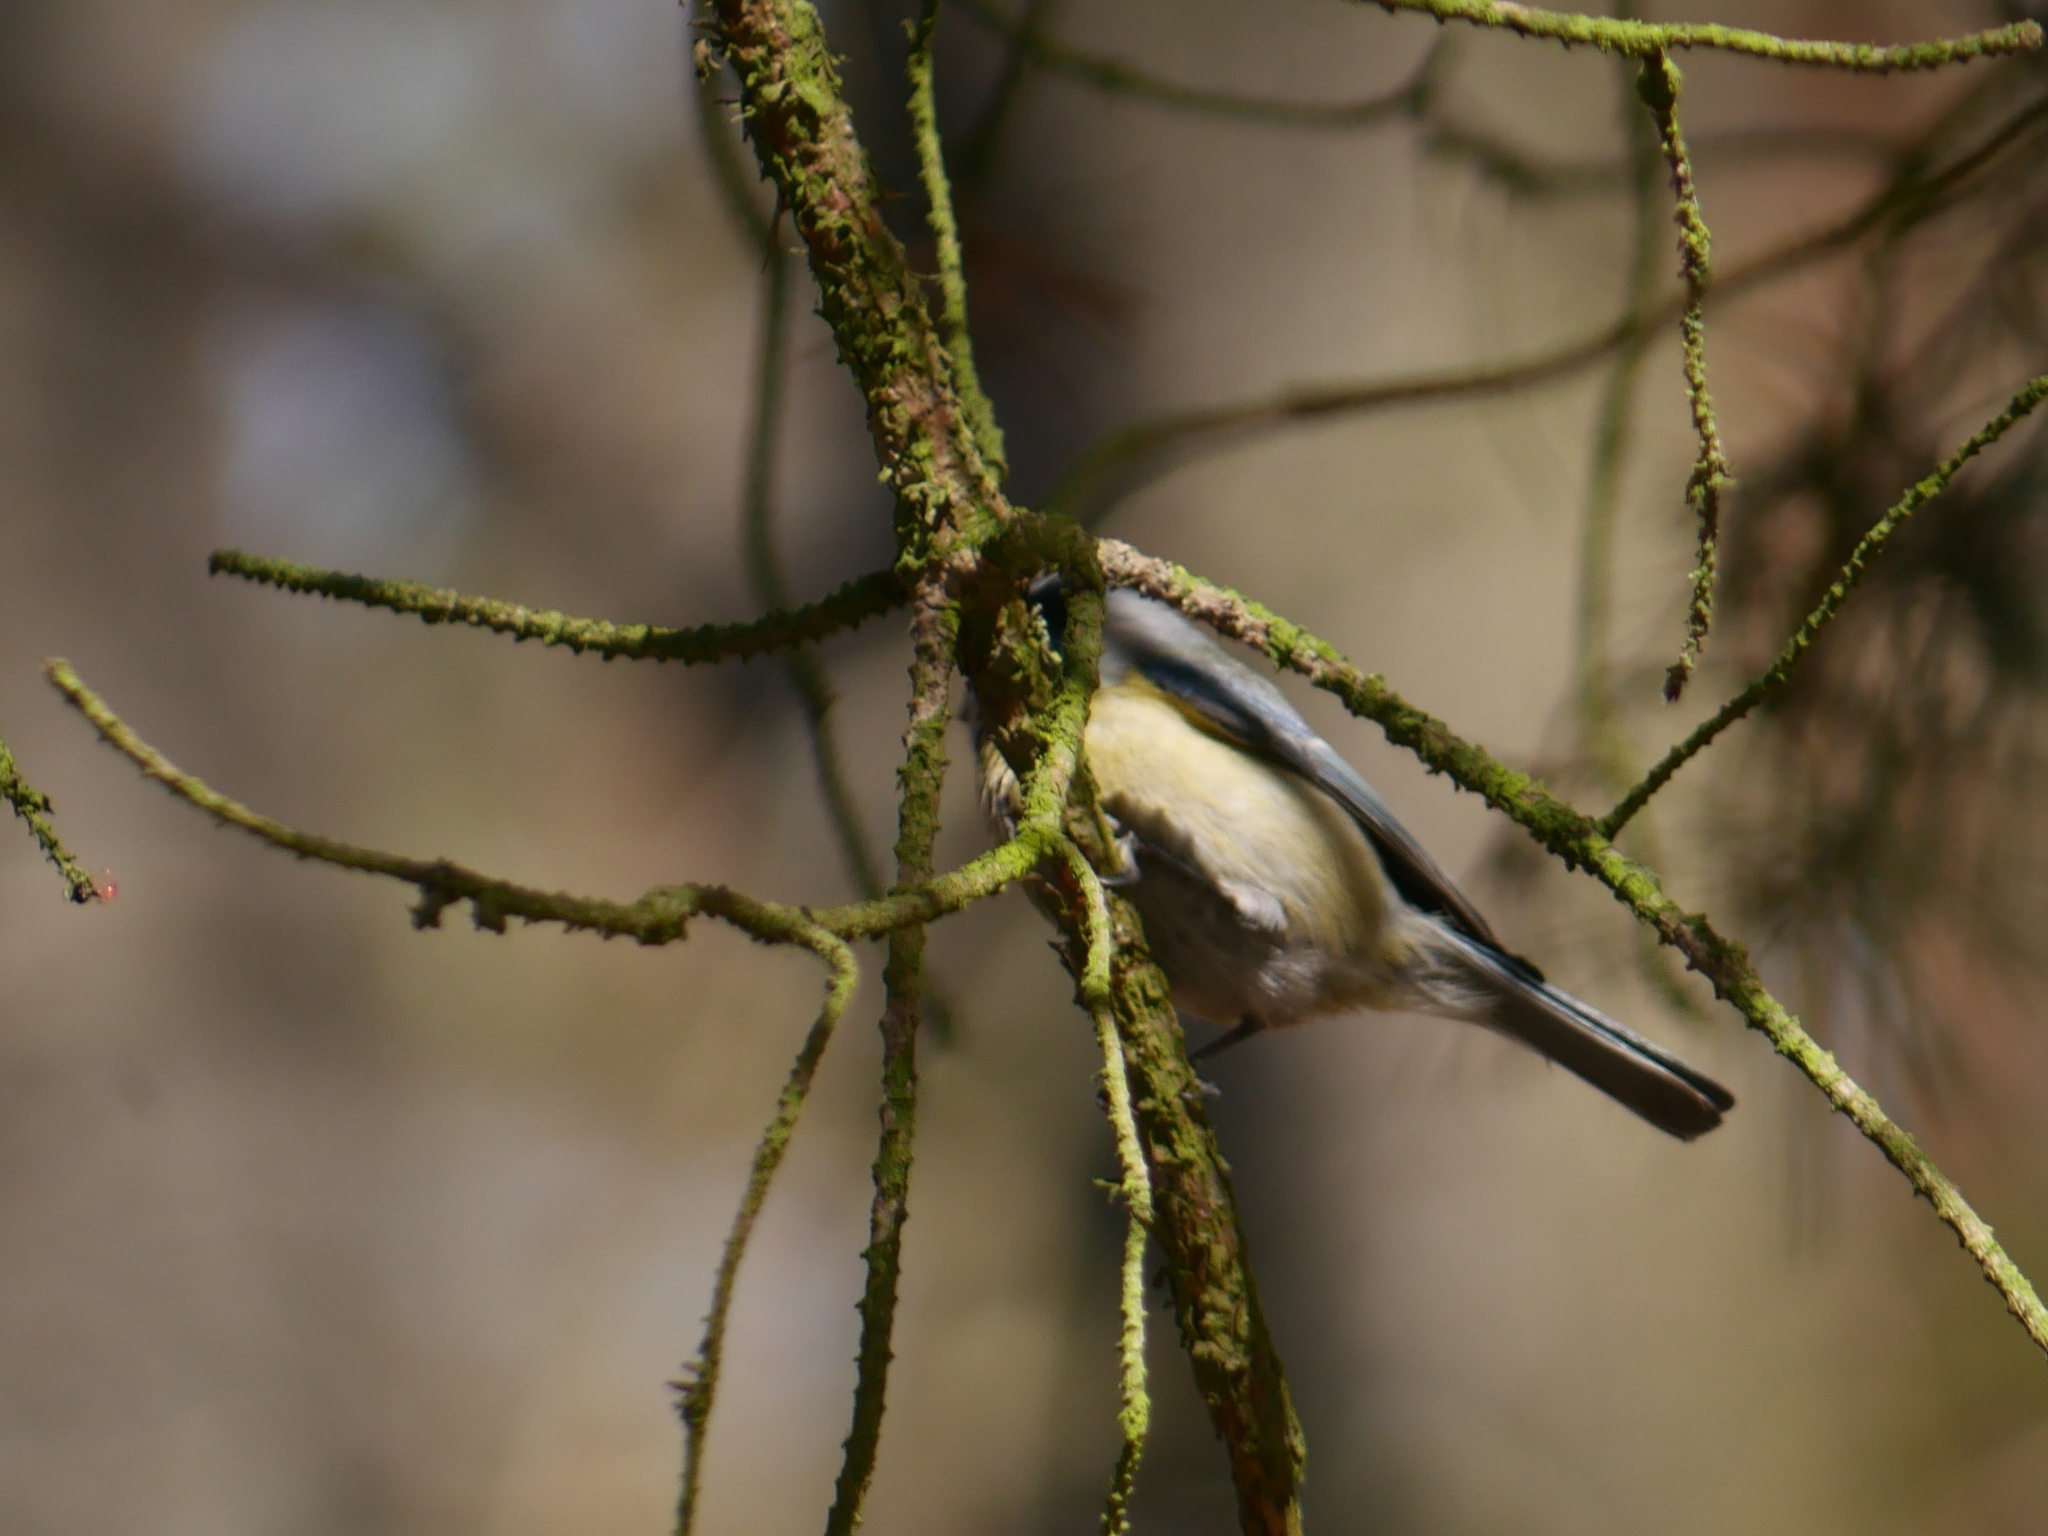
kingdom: Animalia
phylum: Chordata
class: Aves
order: Passeriformes
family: Paridae
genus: Cyanistes
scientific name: Cyanistes caeruleus
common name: Eurasian blue tit
